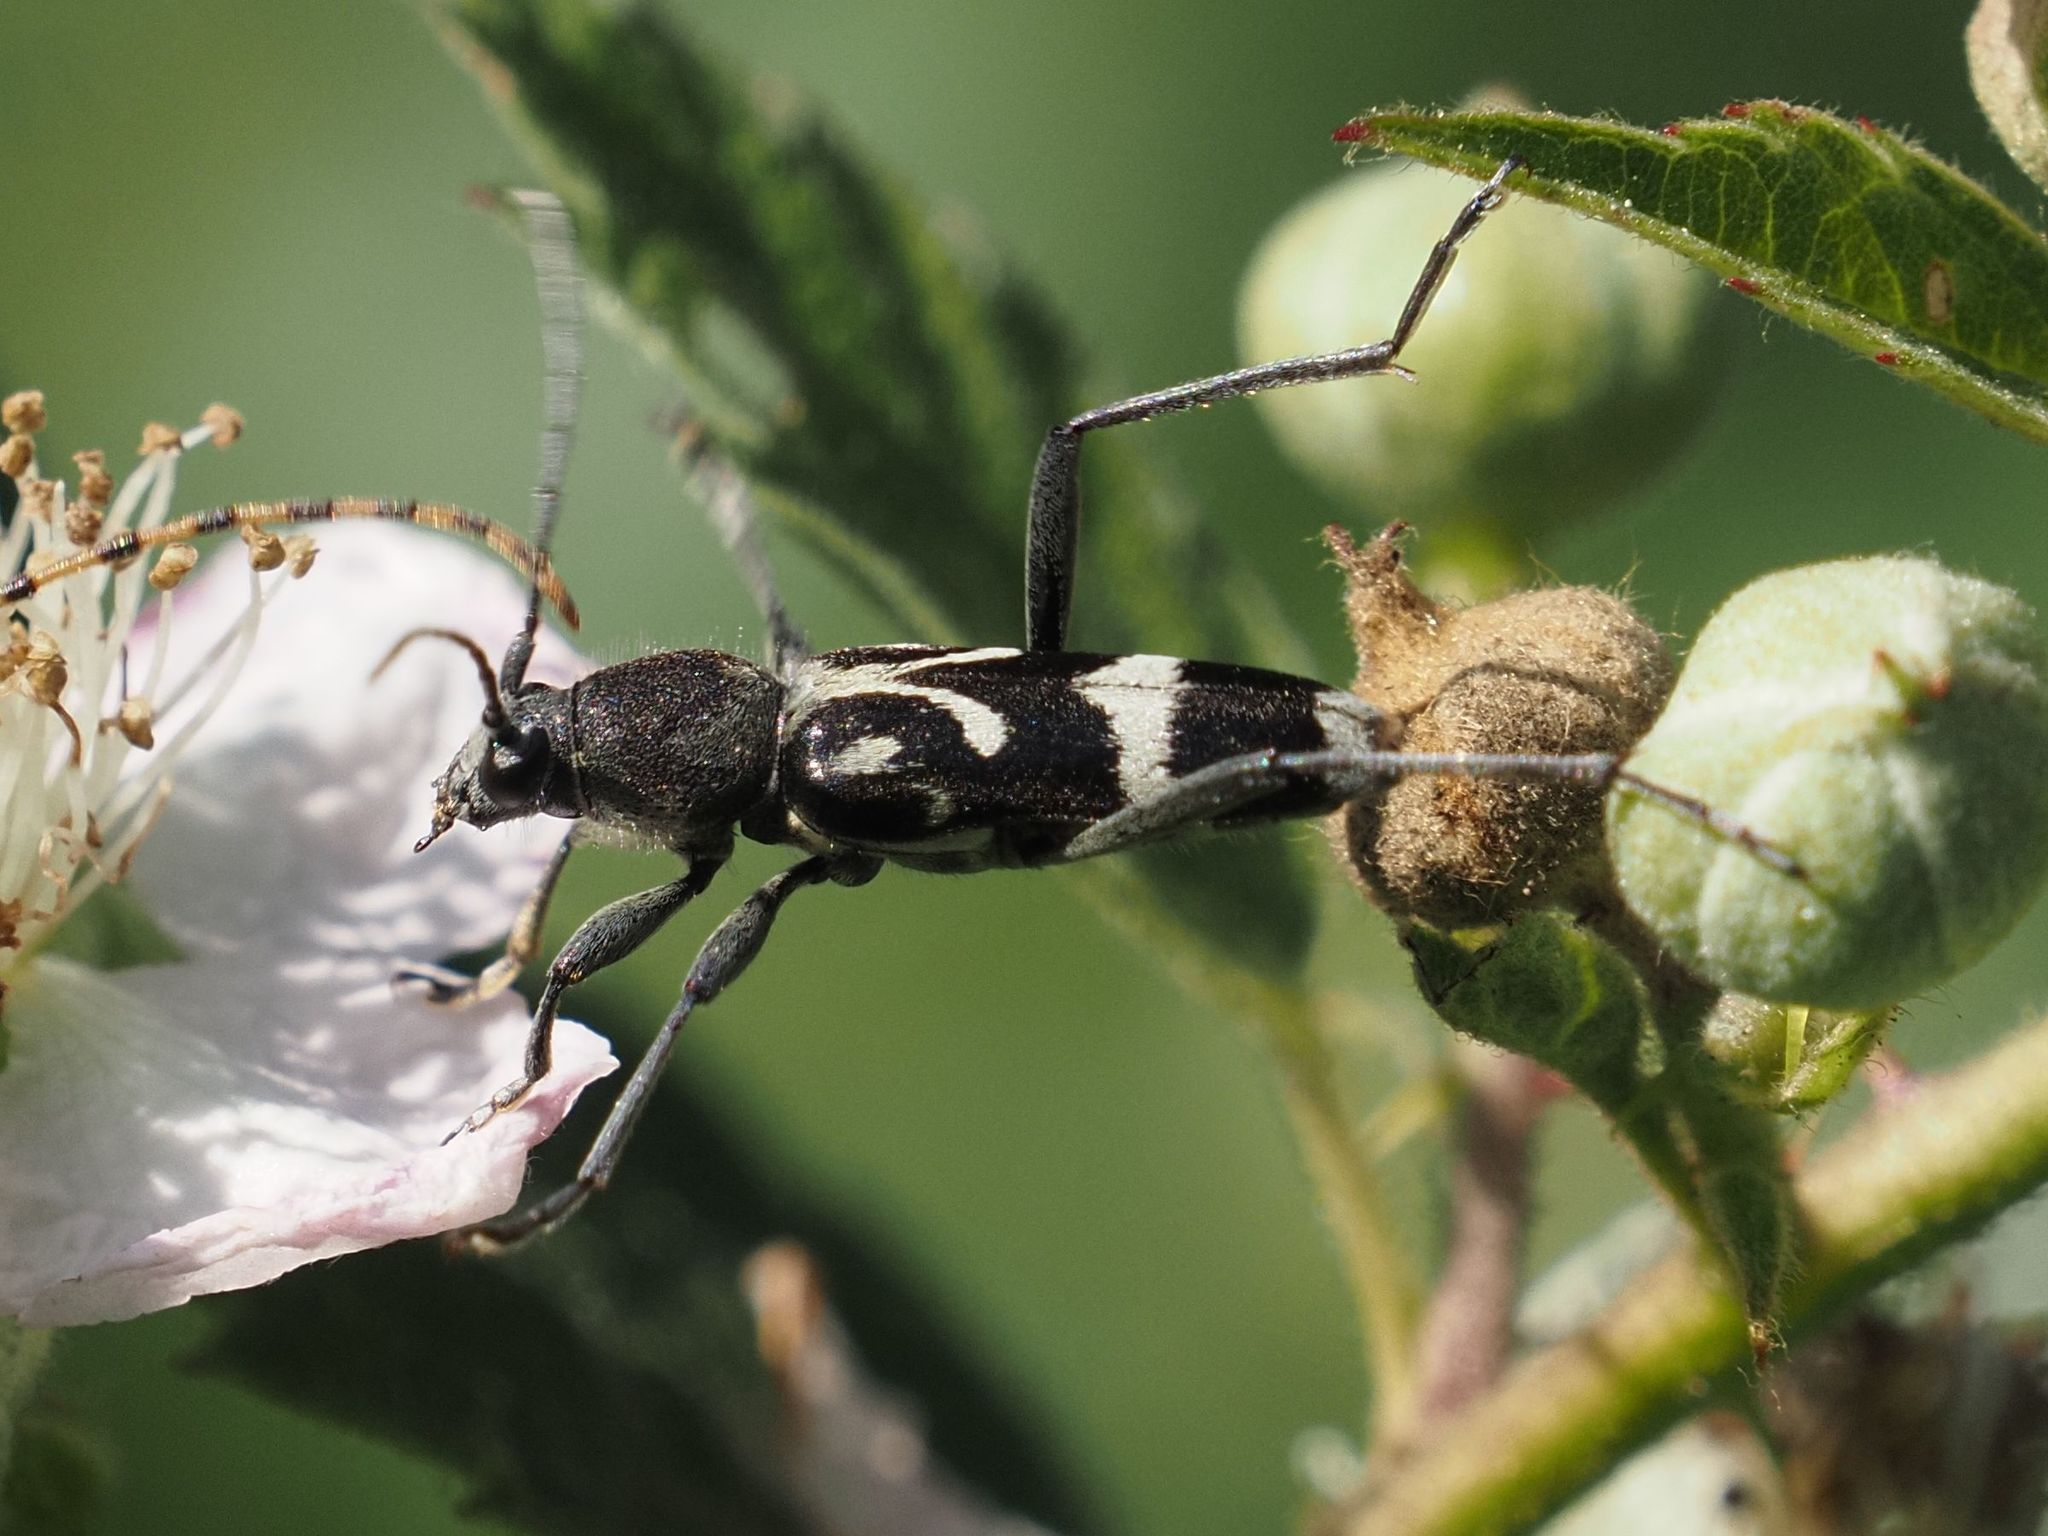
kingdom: Animalia
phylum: Arthropoda
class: Insecta
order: Coleoptera
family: Cerambycidae
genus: Chlorophorus
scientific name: Chlorophorus figuratus
